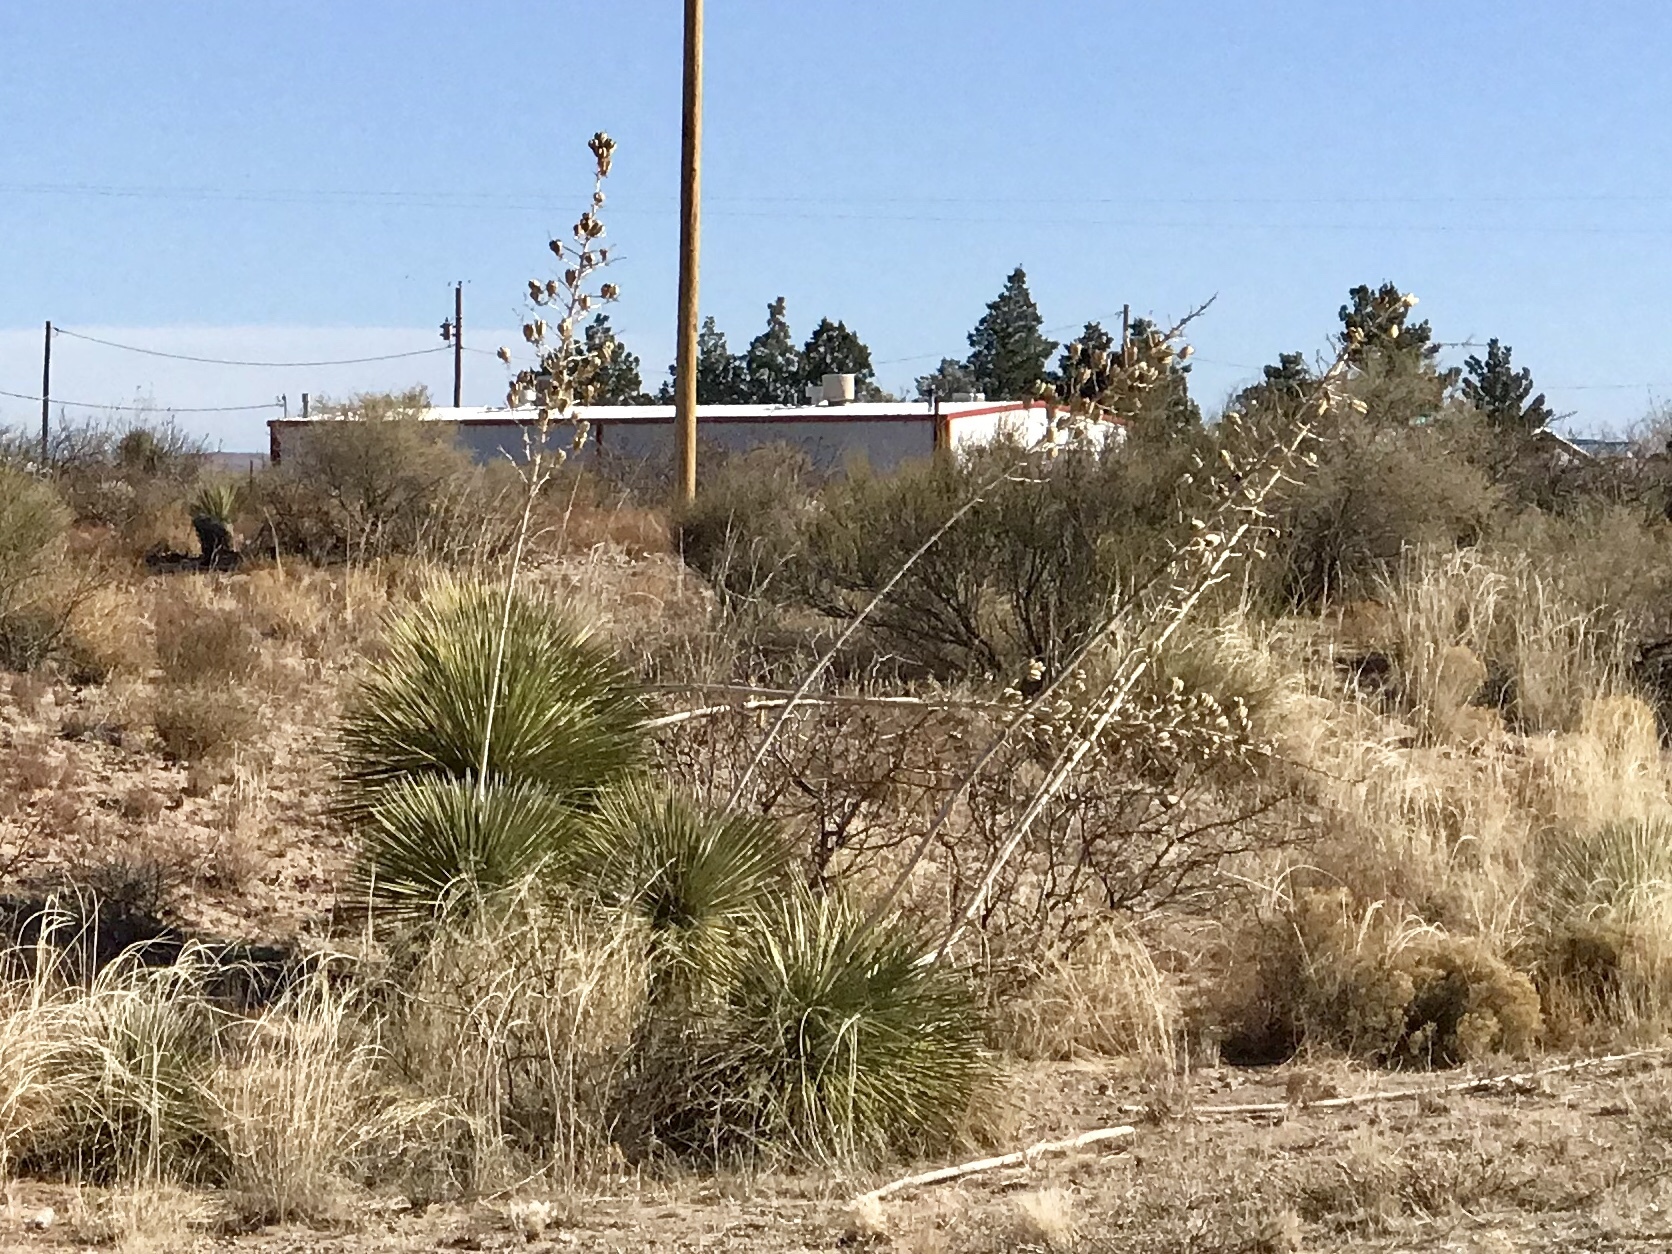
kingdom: Plantae
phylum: Tracheophyta
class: Liliopsida
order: Asparagales
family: Asparagaceae
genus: Yucca
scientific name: Yucca elata
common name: Palmella
